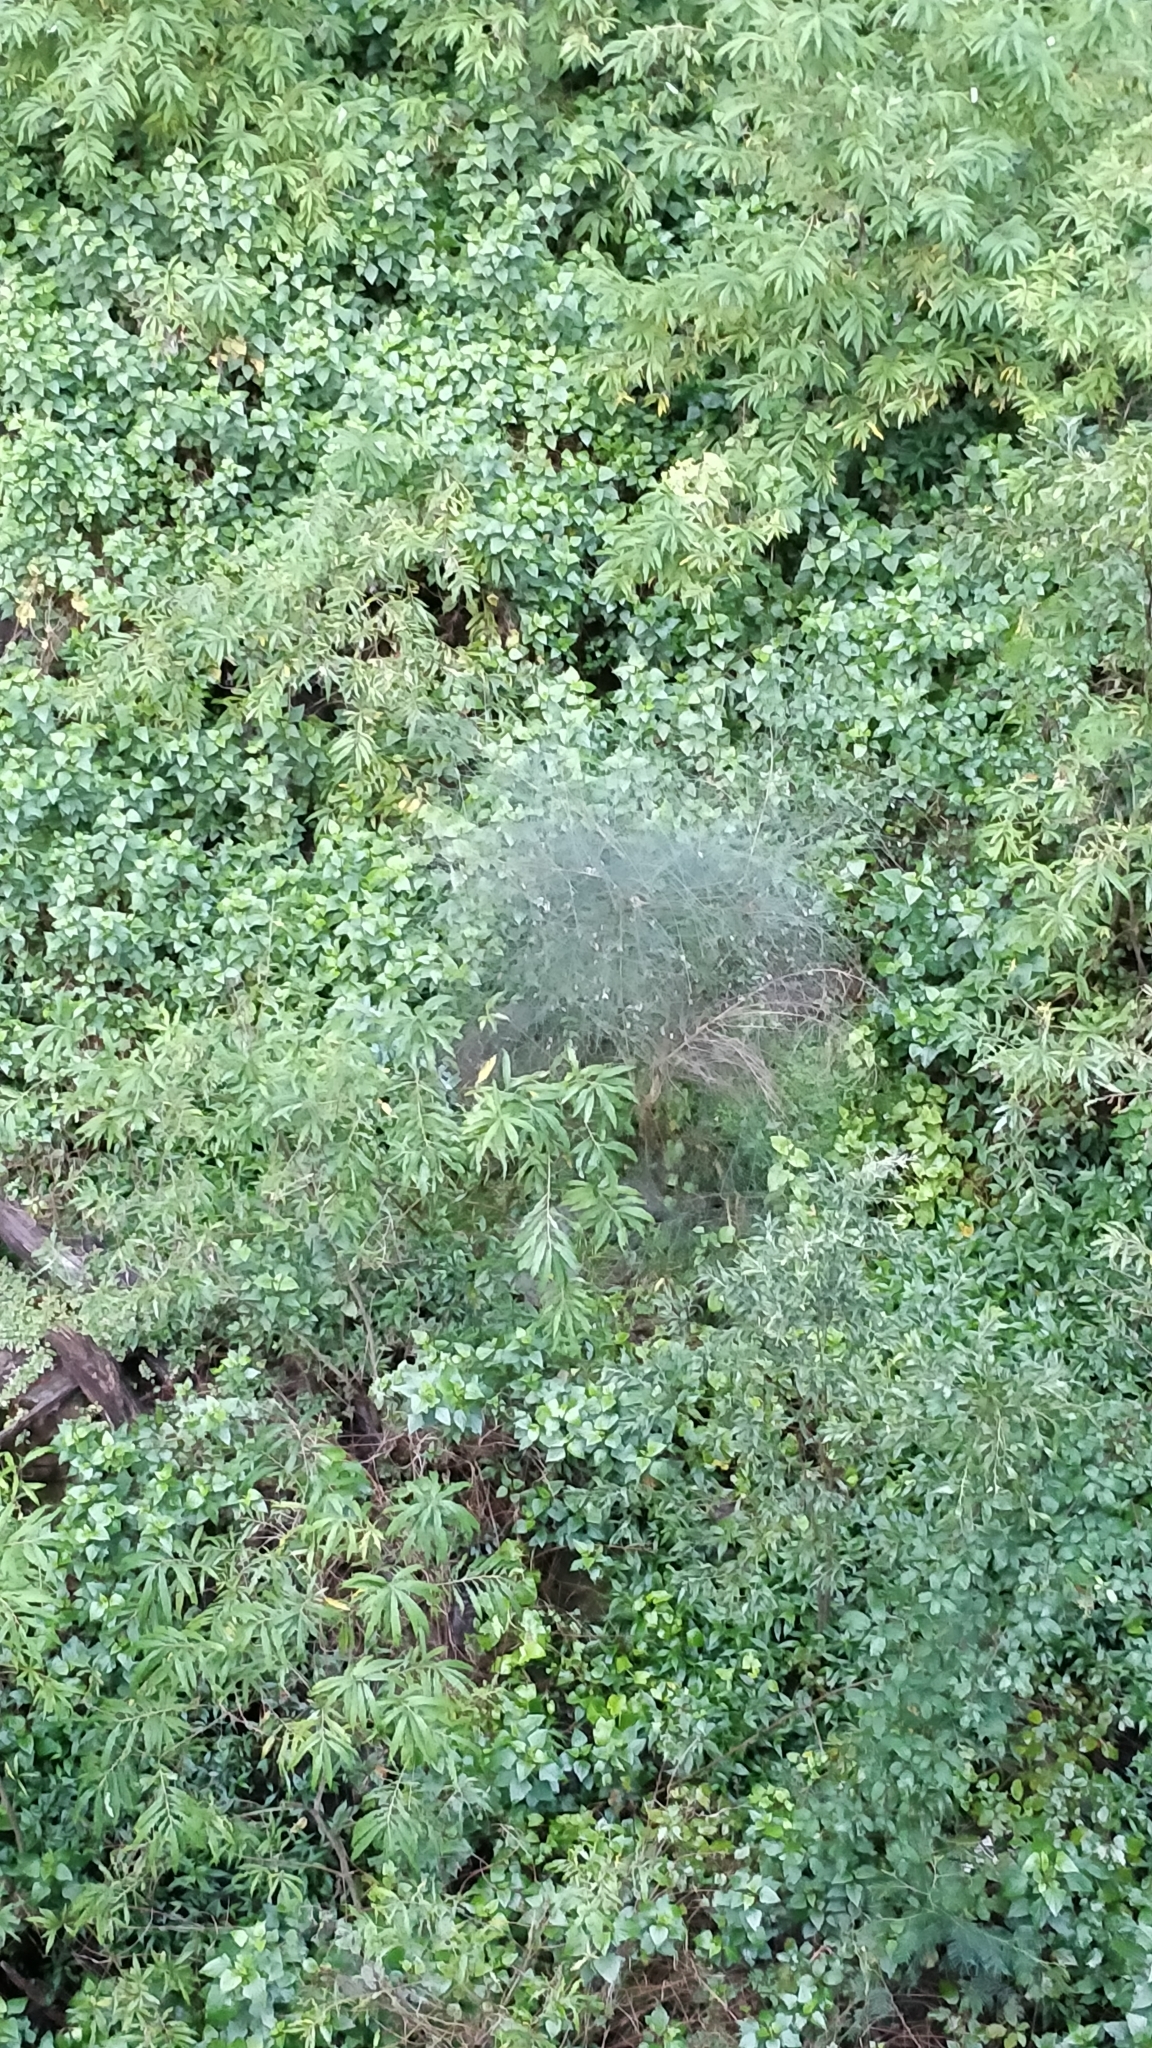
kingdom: Plantae
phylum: Tracheophyta
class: Magnoliopsida
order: Malpighiales
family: Salicaceae
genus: Salix
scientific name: Salix canariensis
